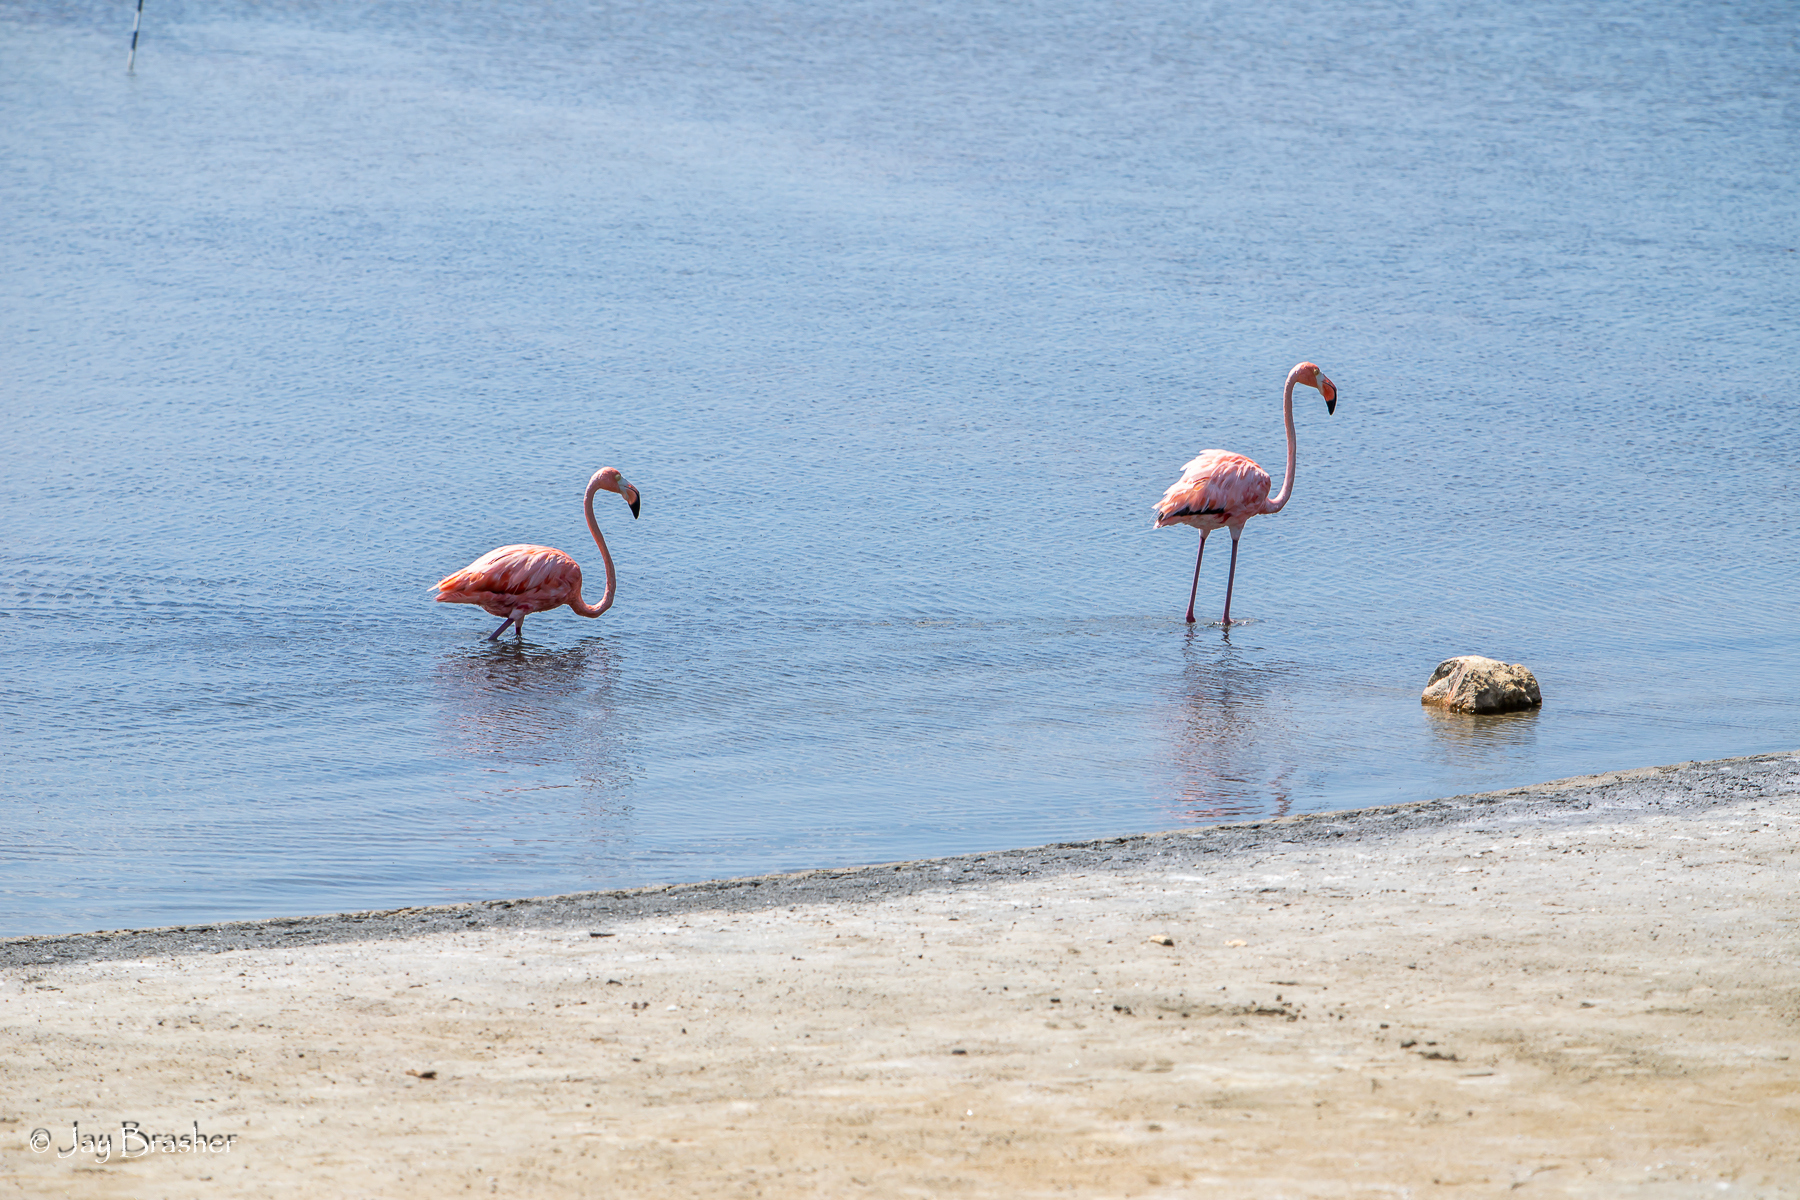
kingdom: Animalia
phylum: Chordata
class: Aves
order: Phoenicopteriformes
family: Phoenicopteridae
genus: Phoenicopterus
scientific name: Phoenicopterus ruber
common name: American flamingo
